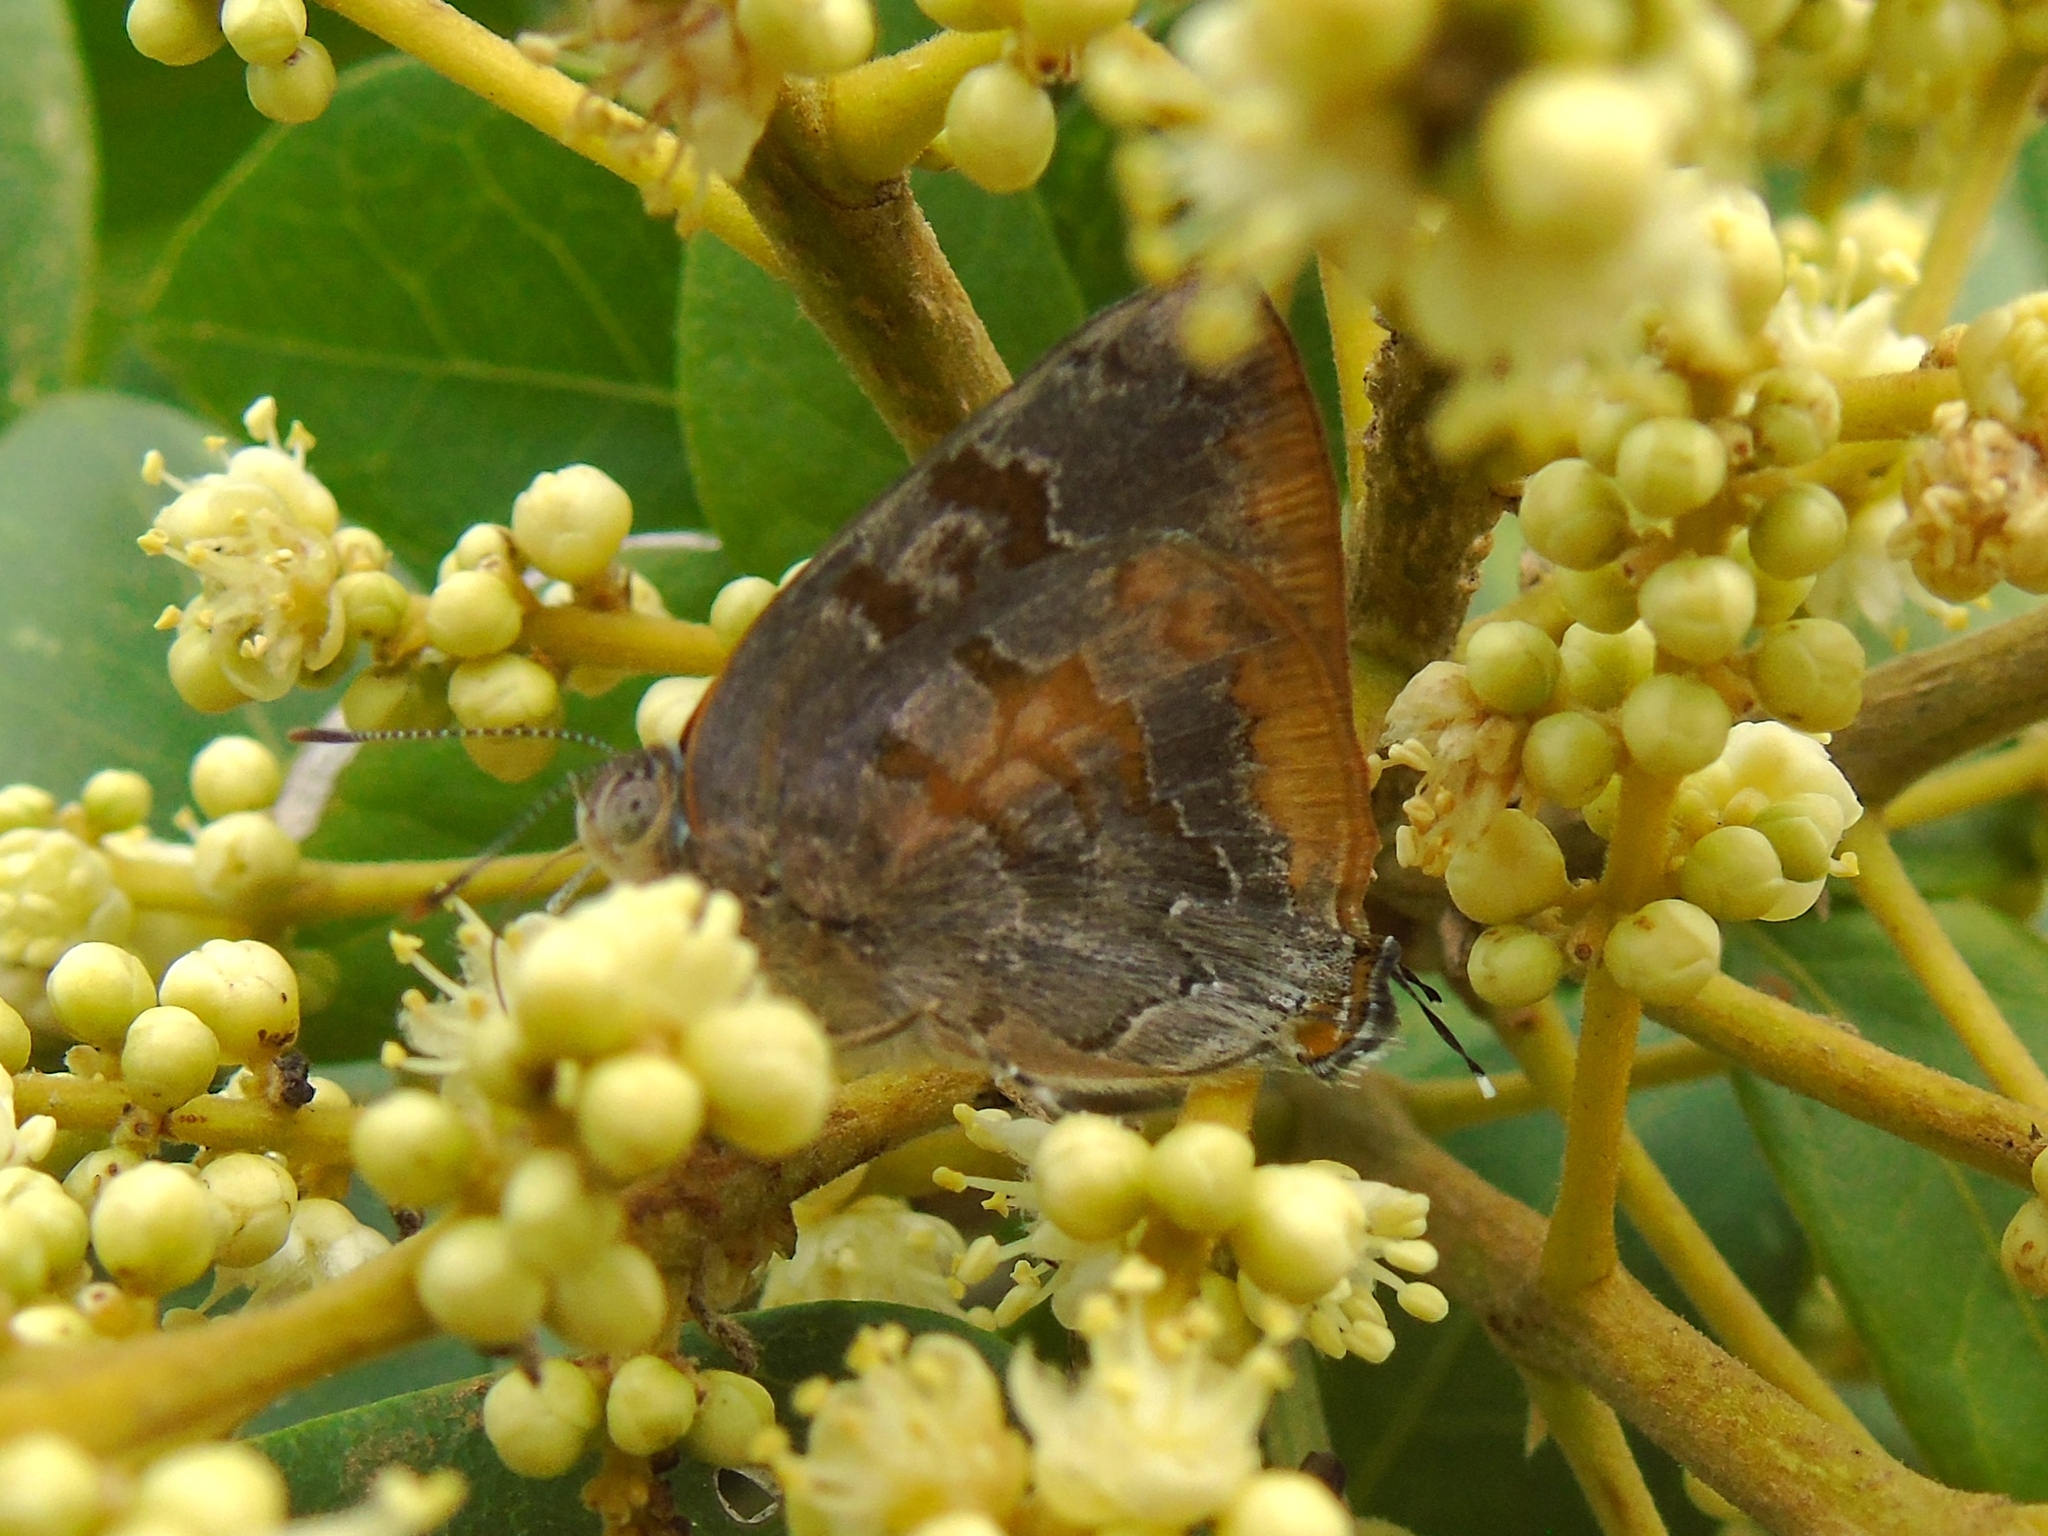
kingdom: Animalia
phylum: Arthropoda
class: Insecta
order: Lepidoptera
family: Lycaenidae
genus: Rekoa
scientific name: Rekoa palegon
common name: Gold-bordered hairstreak
